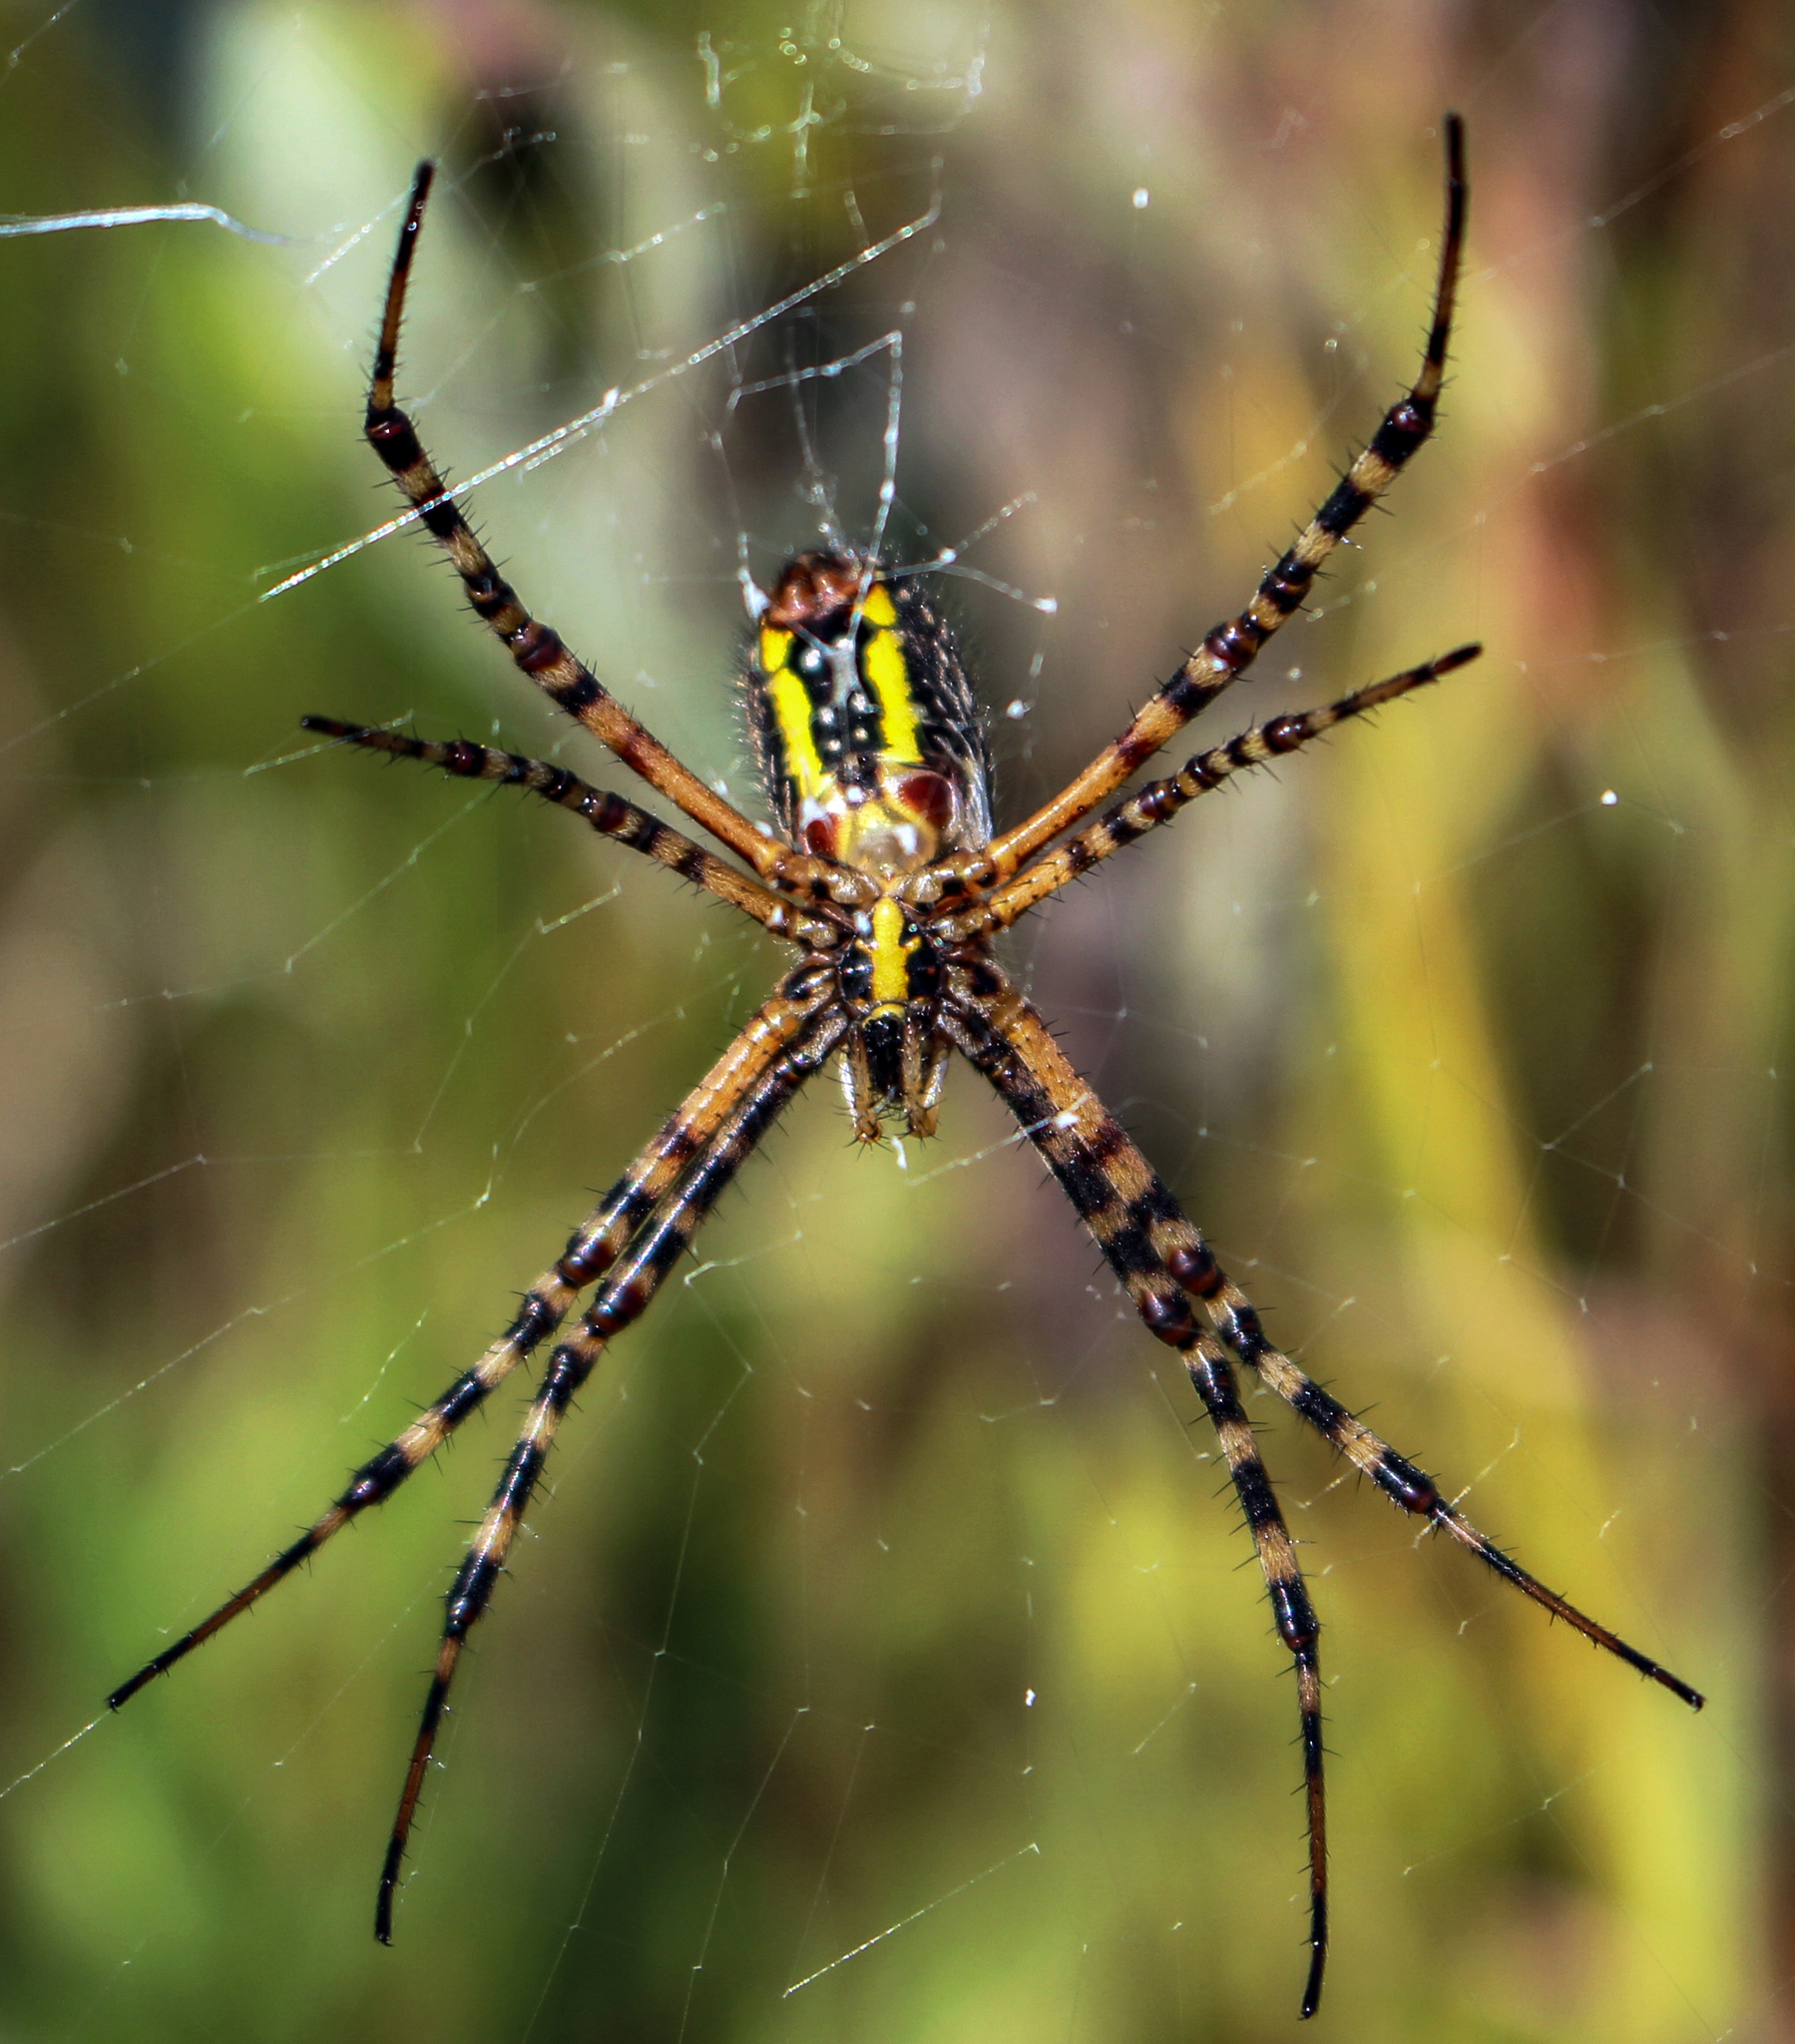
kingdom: Animalia
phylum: Arthropoda
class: Arachnida
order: Araneae
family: Araneidae
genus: Argiope
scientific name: Argiope trifasciata
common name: Banded garden spider
